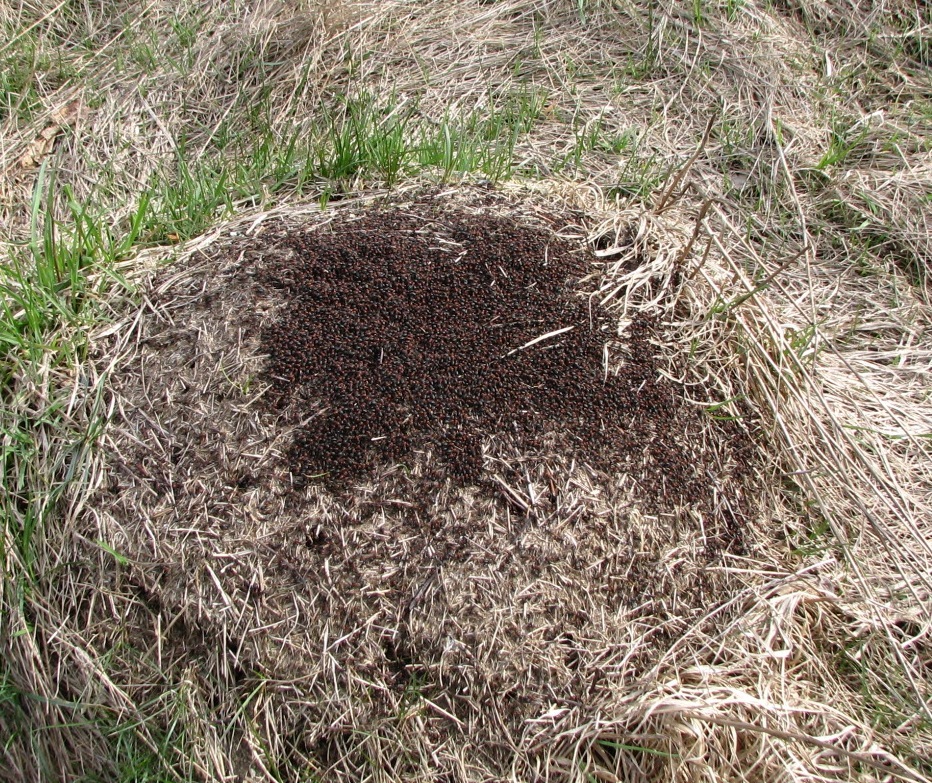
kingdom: Animalia
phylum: Arthropoda
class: Insecta
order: Hymenoptera
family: Formicidae
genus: Formica
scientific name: Formica obscuripes
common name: Western thatching ant
